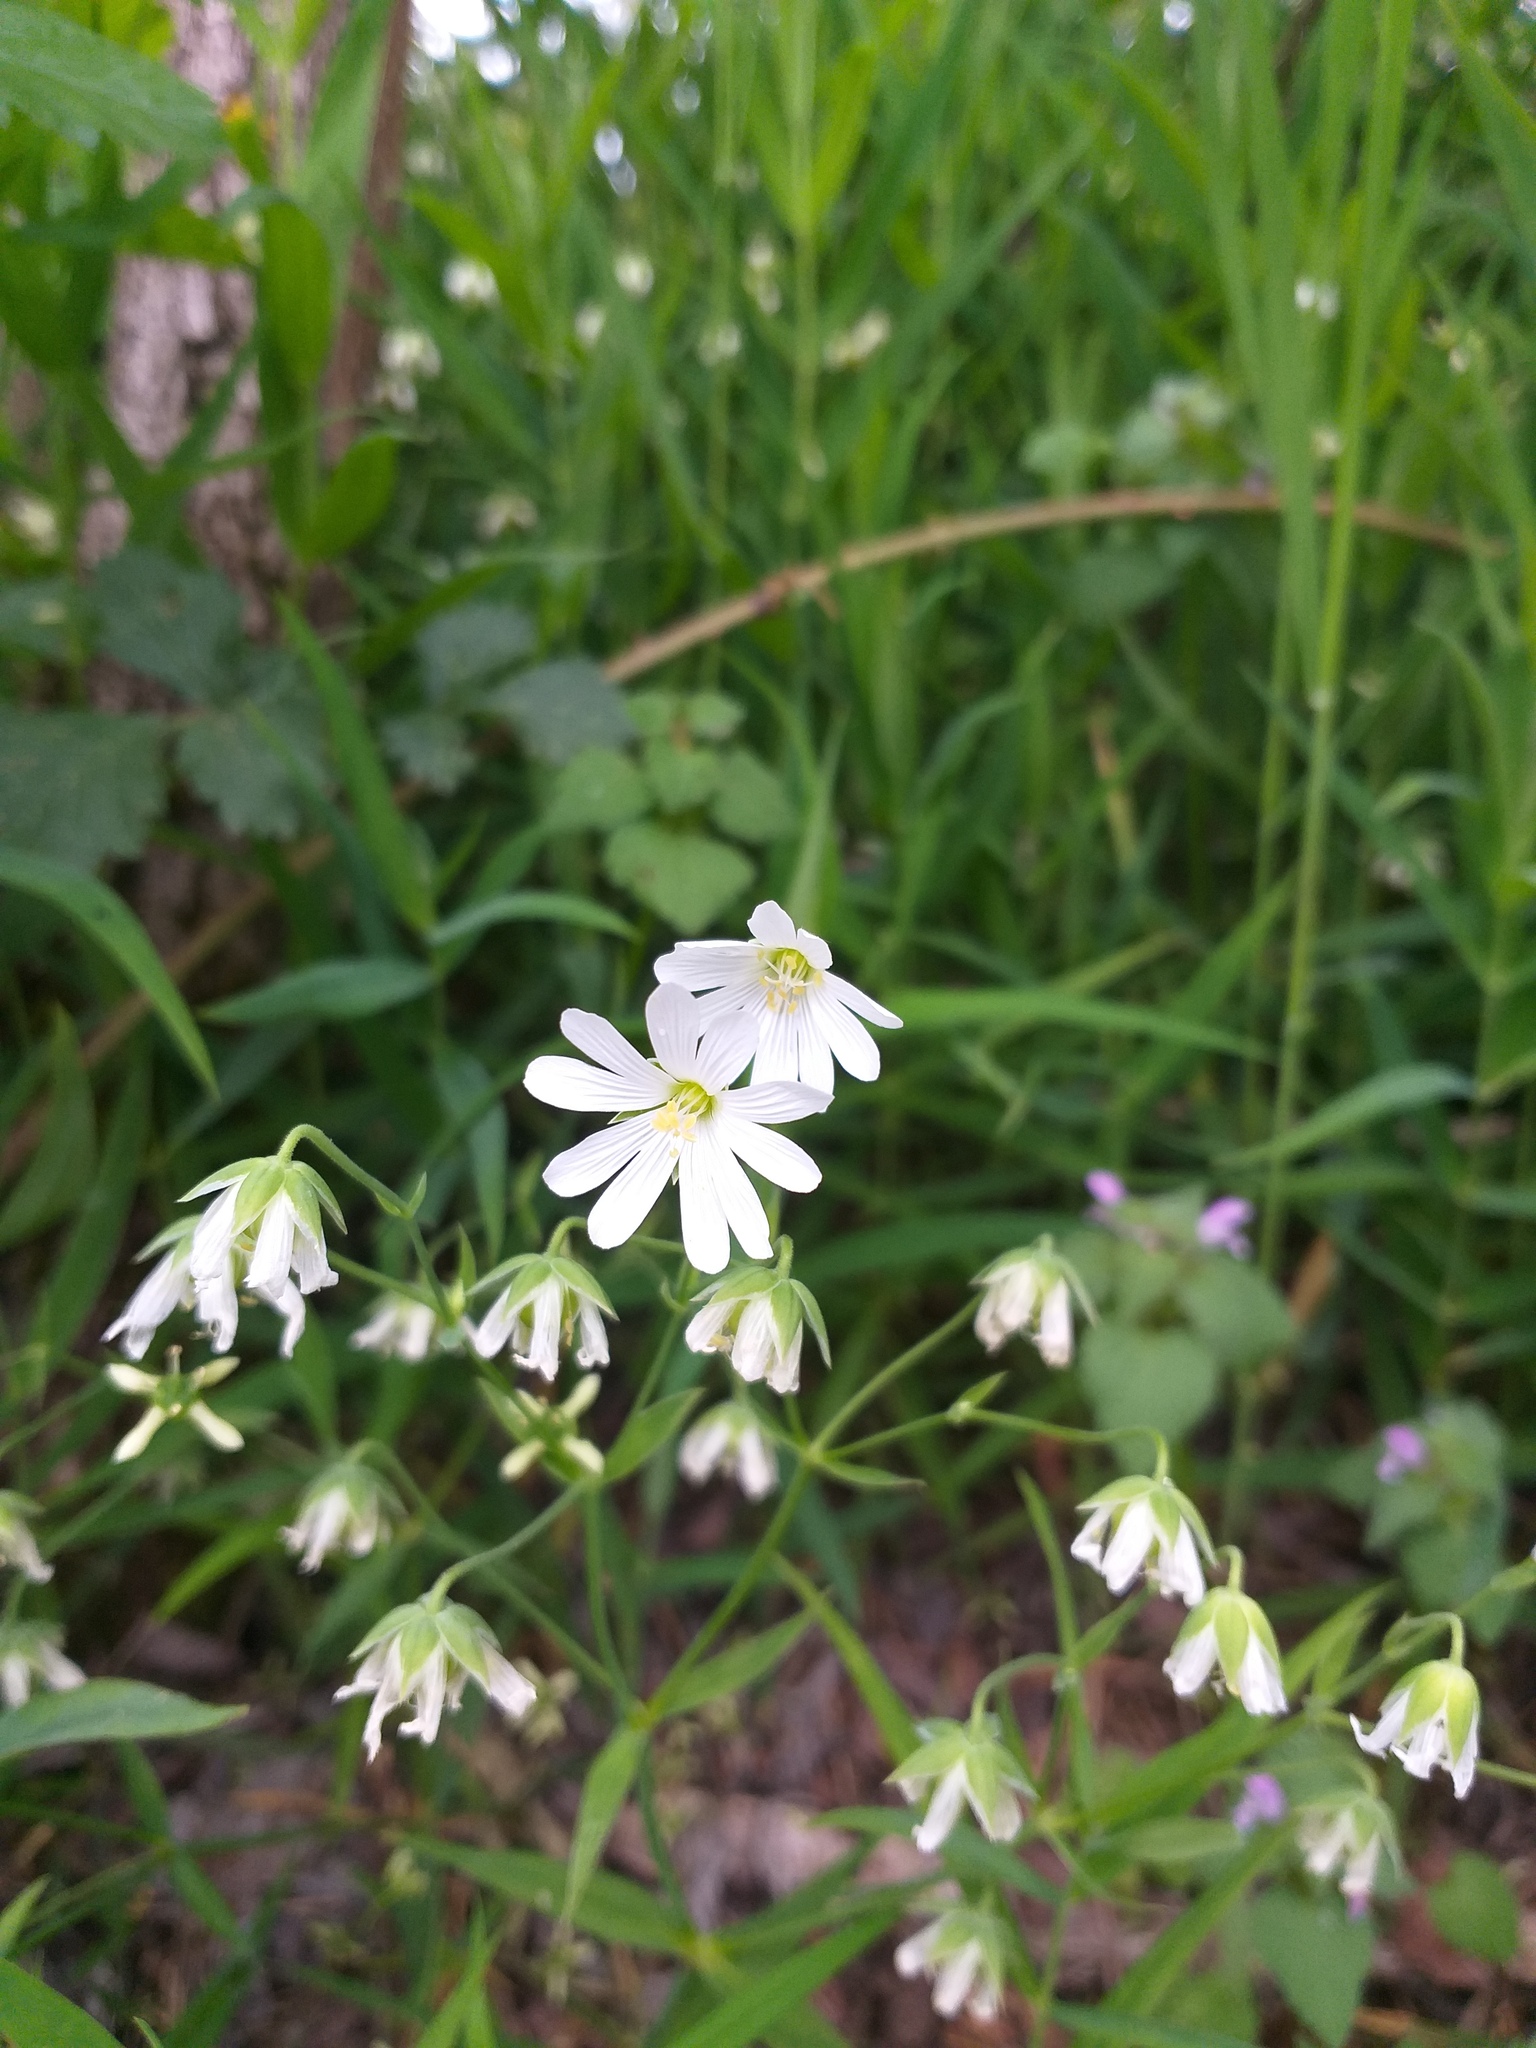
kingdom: Plantae
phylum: Tracheophyta
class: Magnoliopsida
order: Caryophyllales
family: Caryophyllaceae
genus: Rabelera
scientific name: Rabelera holostea
